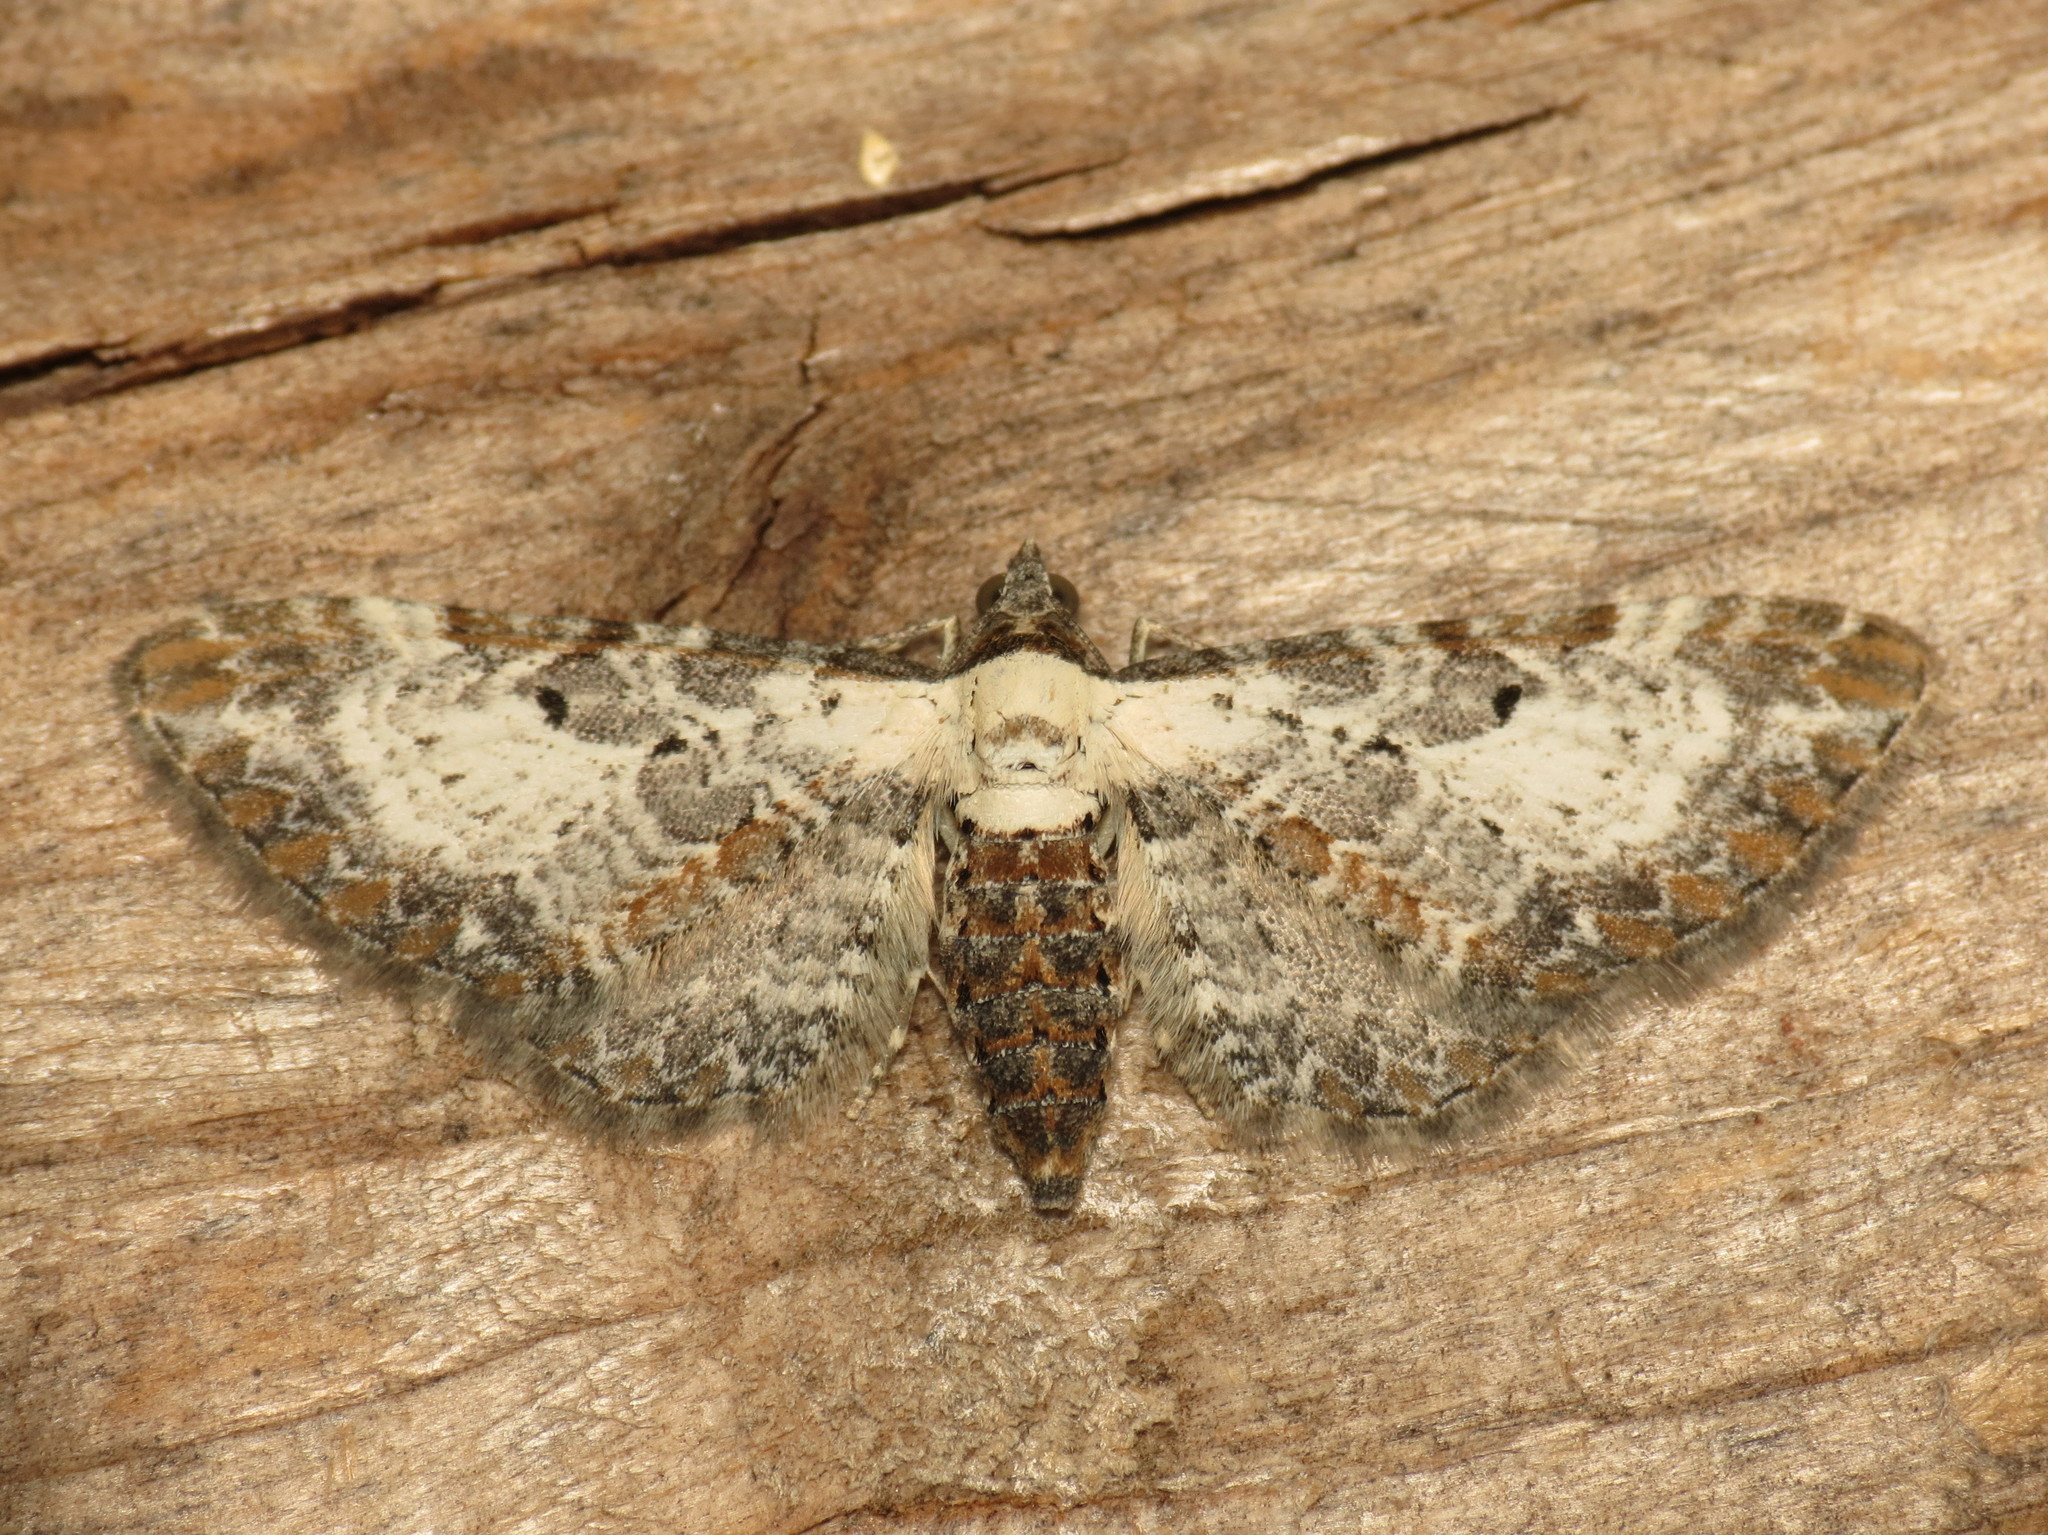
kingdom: Animalia
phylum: Arthropoda
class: Insecta
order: Lepidoptera
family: Geometridae
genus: Eupithecia
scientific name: Eupithecia succenturiata
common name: Bordered pug
